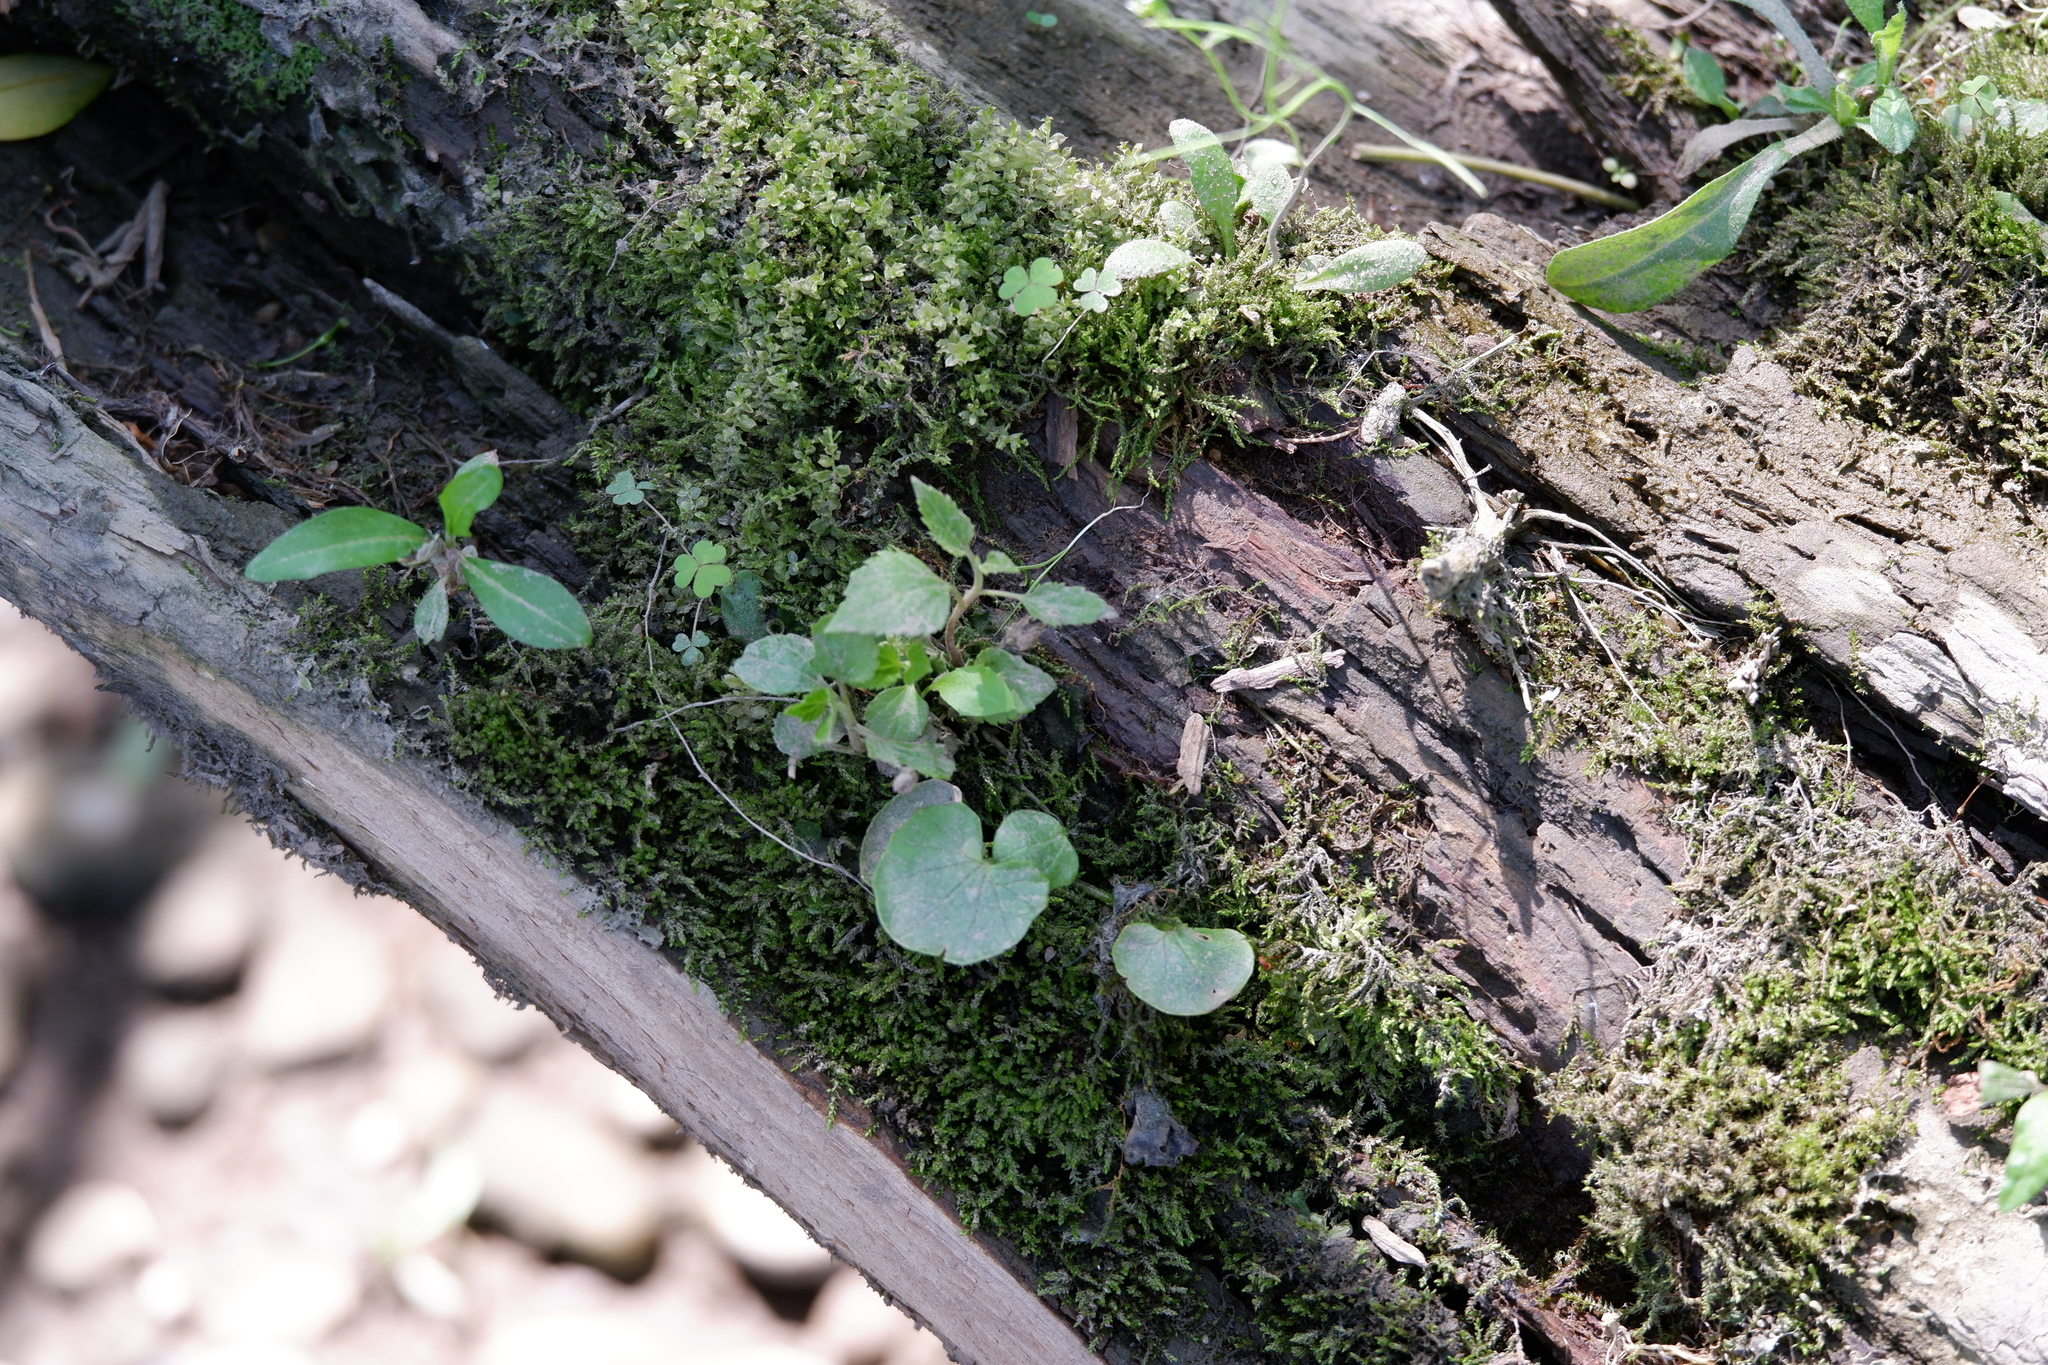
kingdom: Plantae
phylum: Tracheophyta
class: Magnoliopsida
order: Ranunculales
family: Ranunculaceae
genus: Ficaria
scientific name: Ficaria verna
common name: Lesser celandine
